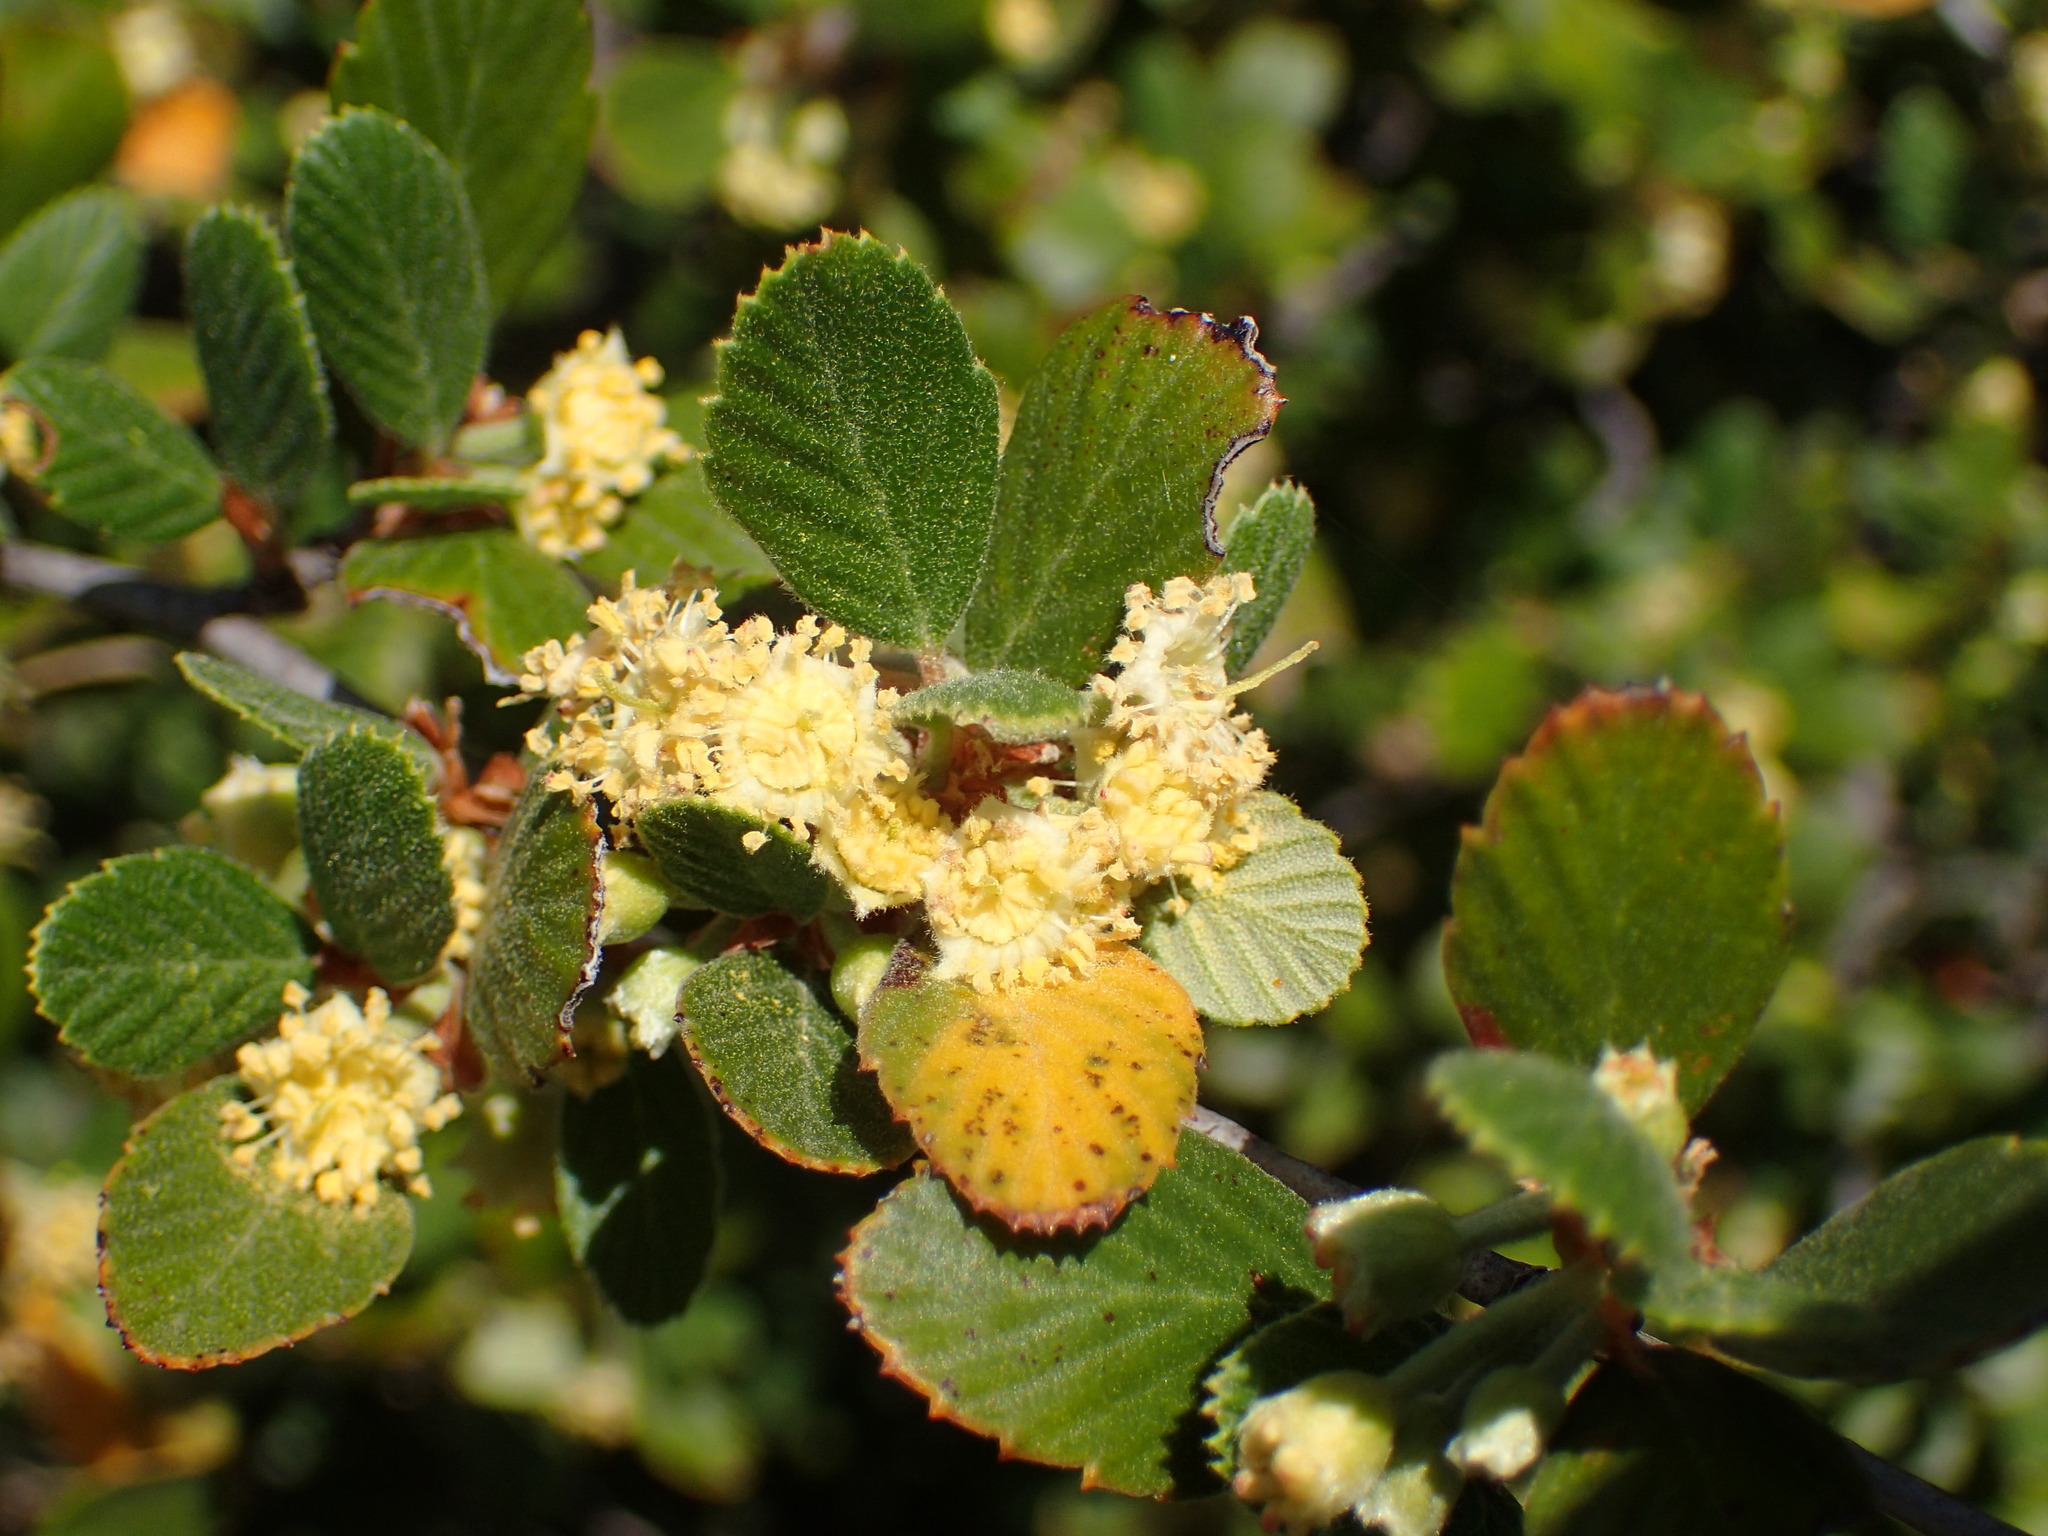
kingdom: Plantae
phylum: Tracheophyta
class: Magnoliopsida
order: Rosales
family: Rosaceae
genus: Cercocarpus
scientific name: Cercocarpus betuloides
